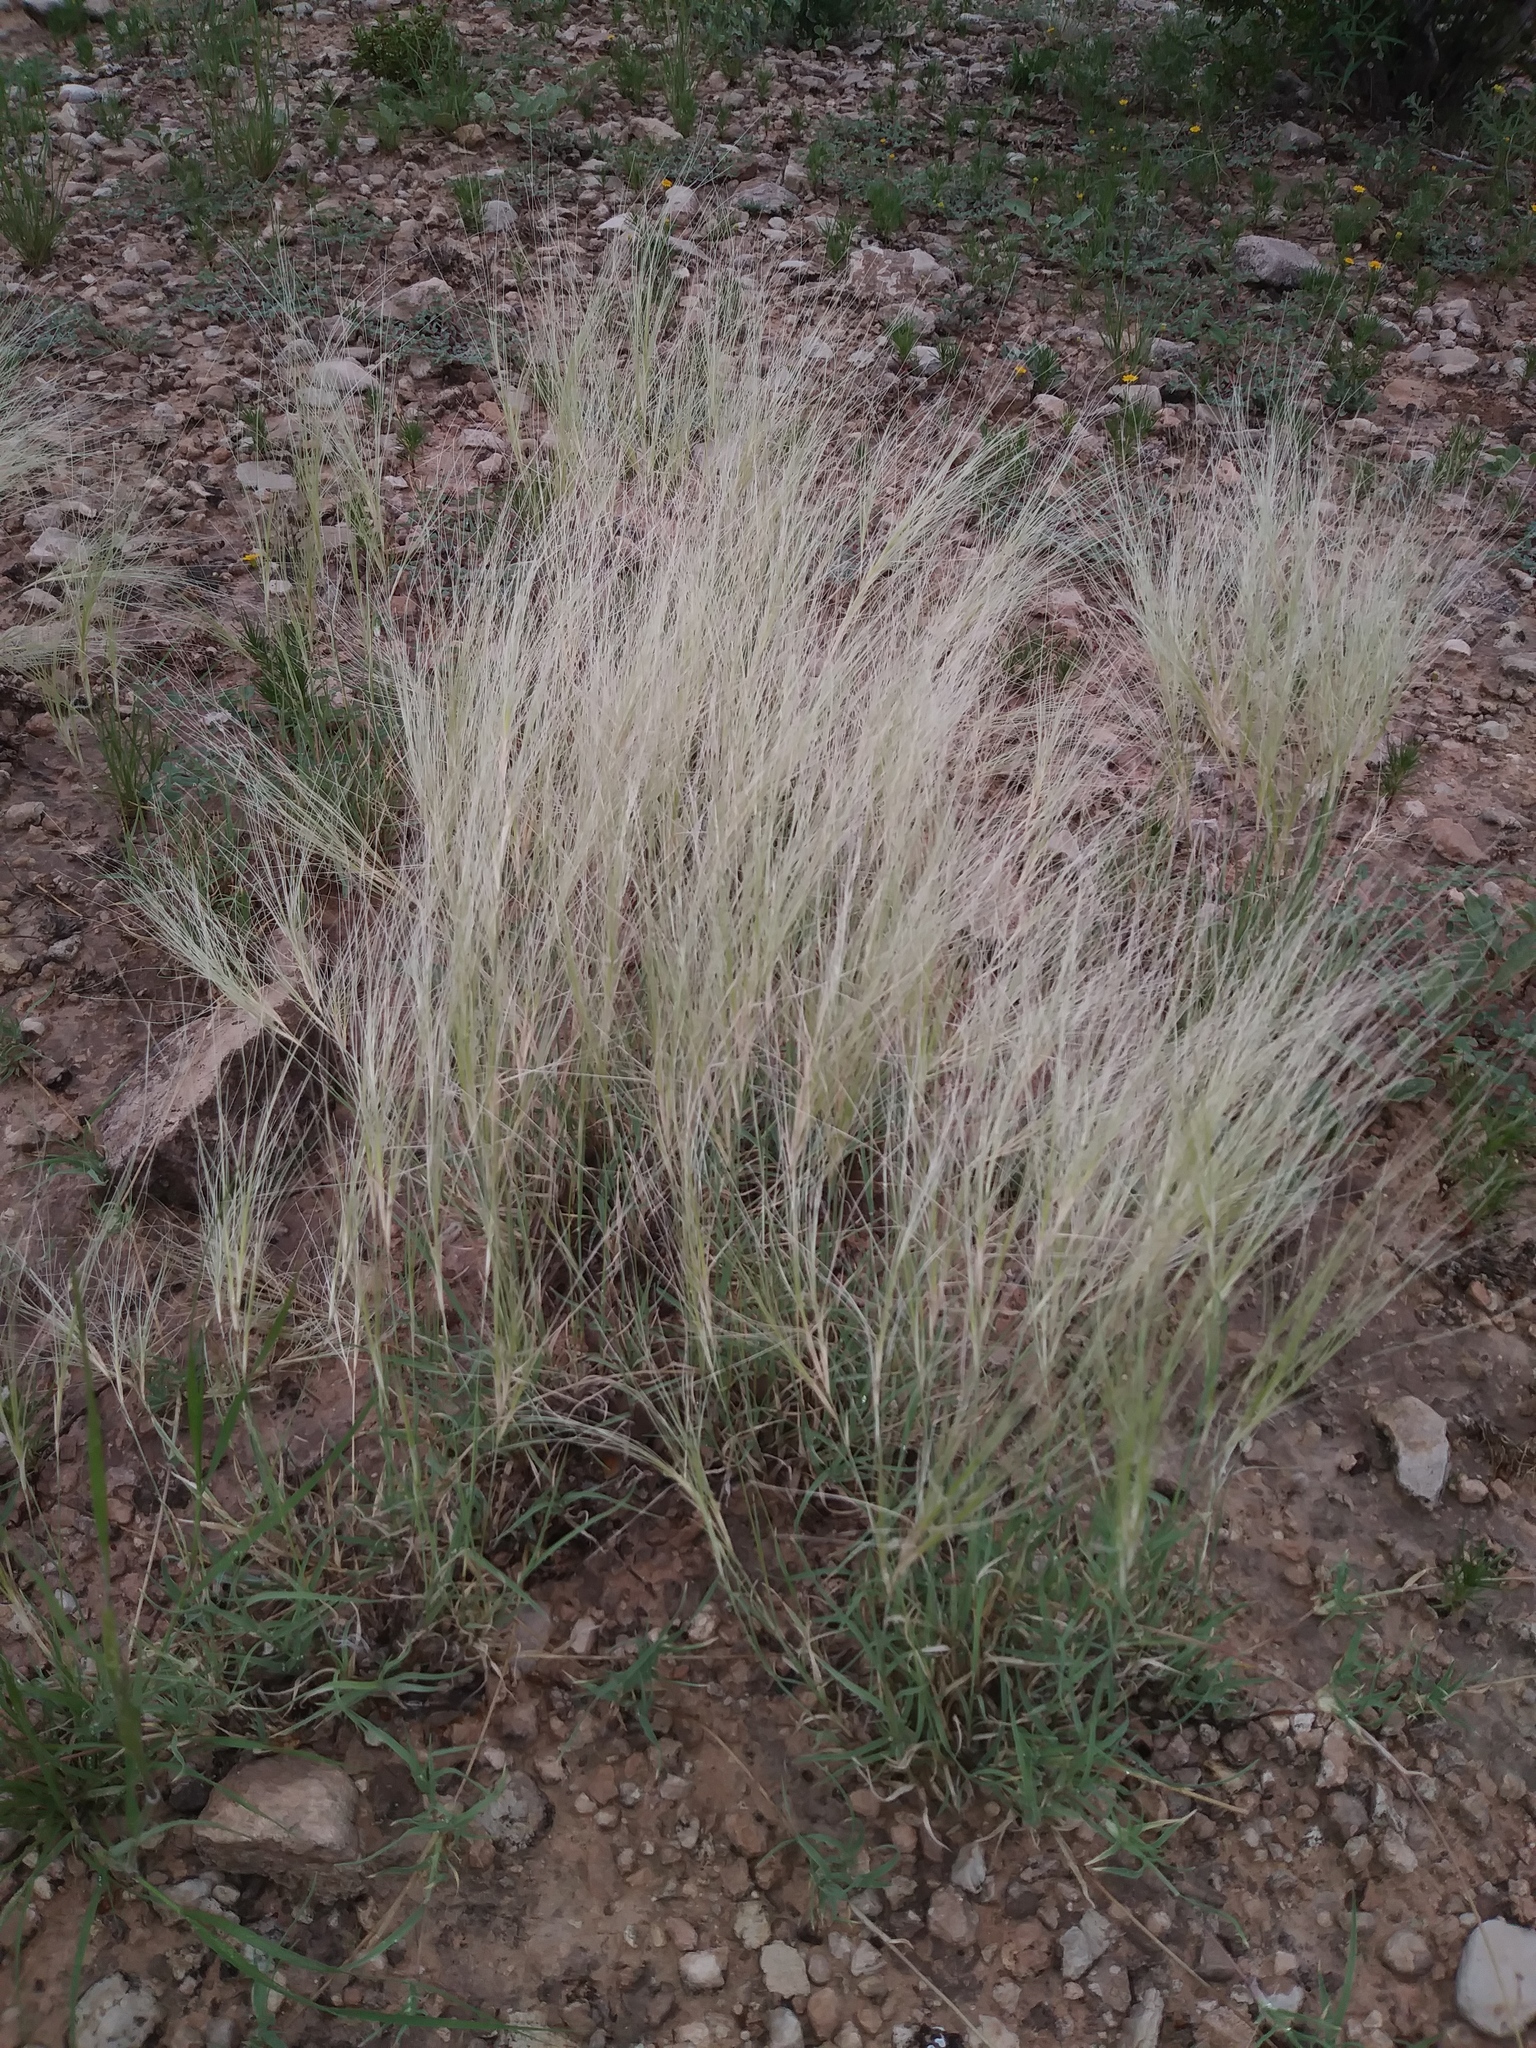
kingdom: Plantae
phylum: Tracheophyta
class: Liliopsida
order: Poales
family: Poaceae
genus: Scleropogon
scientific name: Scleropogon brevifolius
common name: Burro grass
